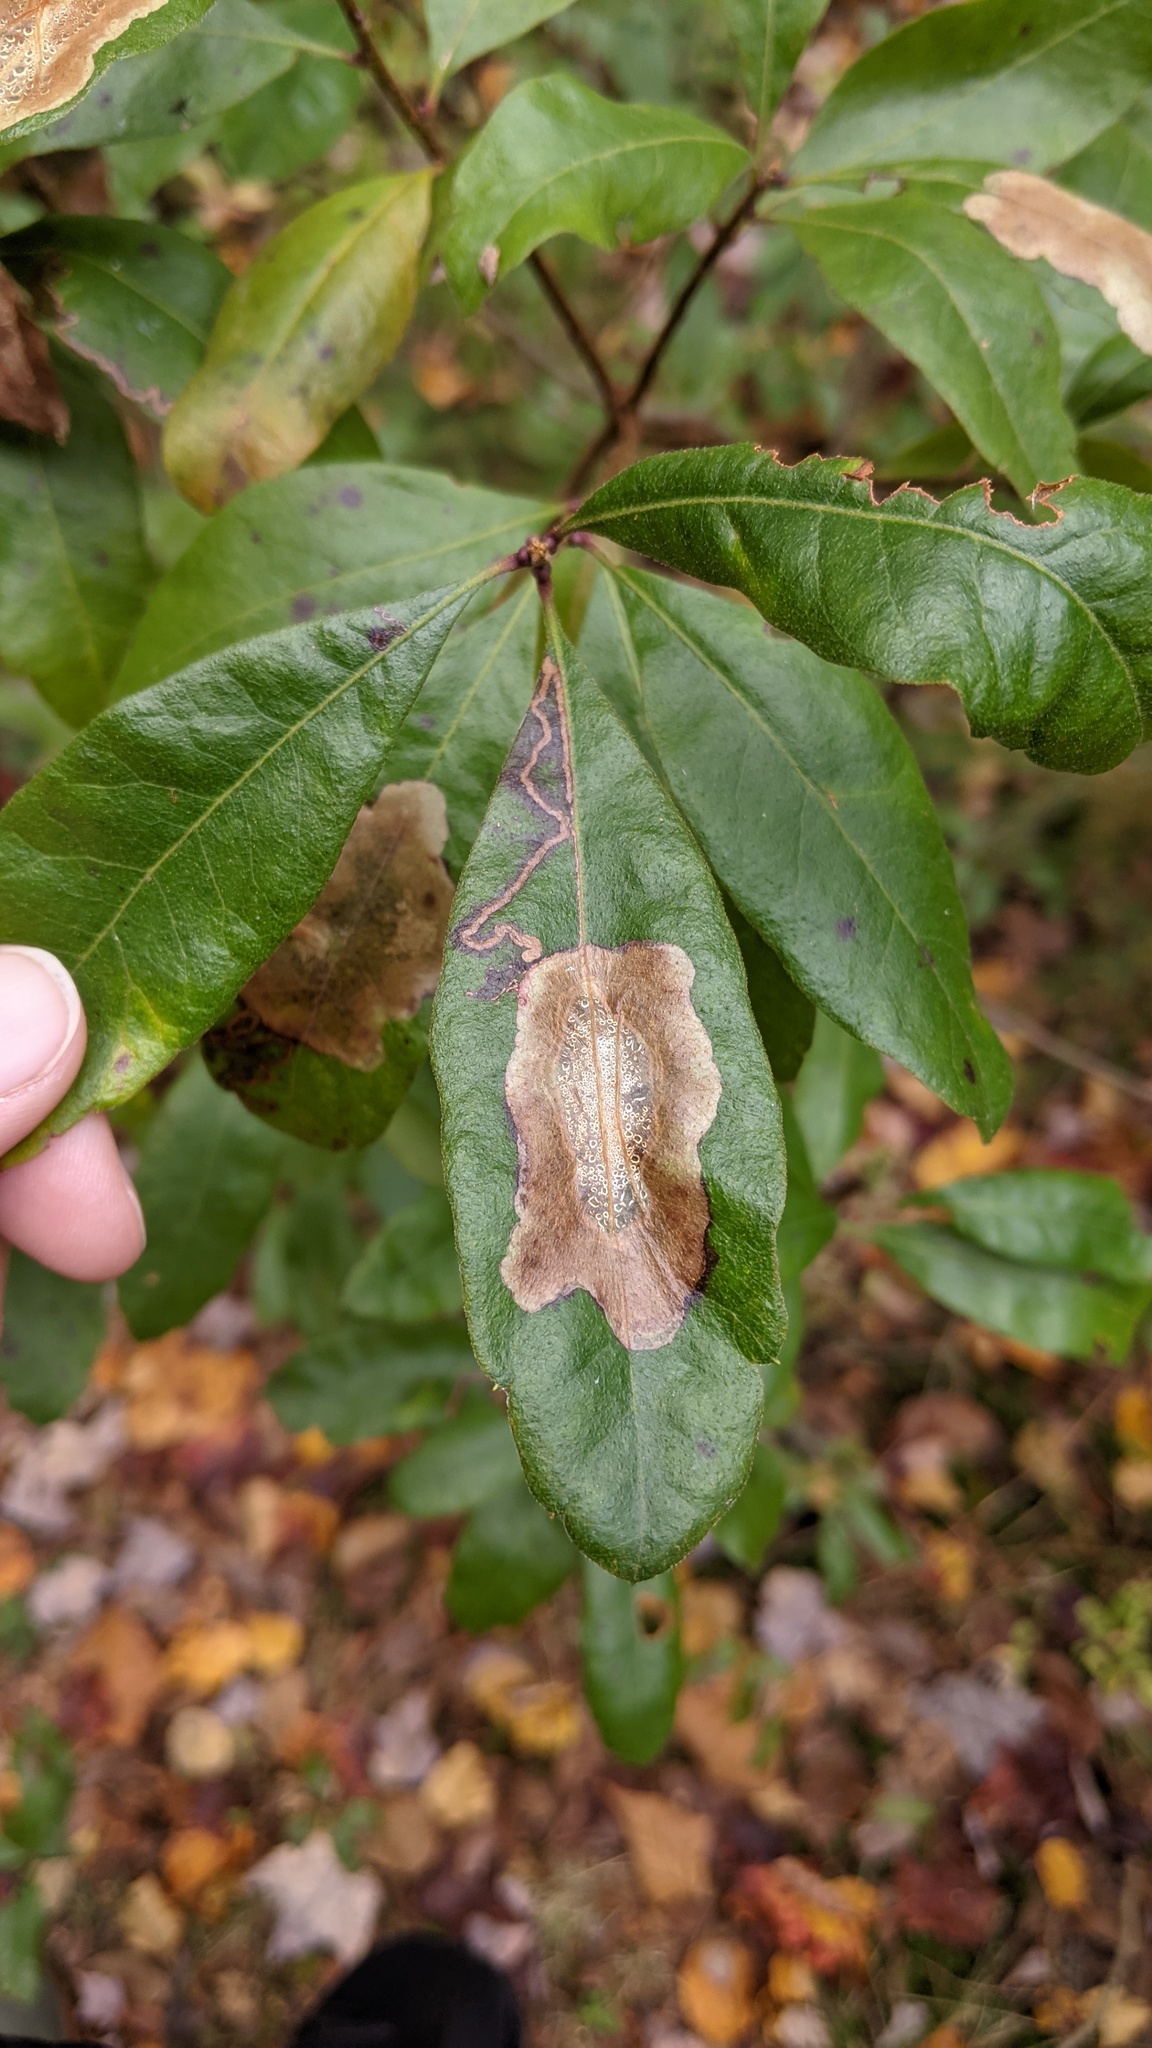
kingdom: Animalia
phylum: Arthropoda
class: Insecta
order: Lepidoptera
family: Gracillariidae
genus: Cameraria
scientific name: Cameraria picturatella
